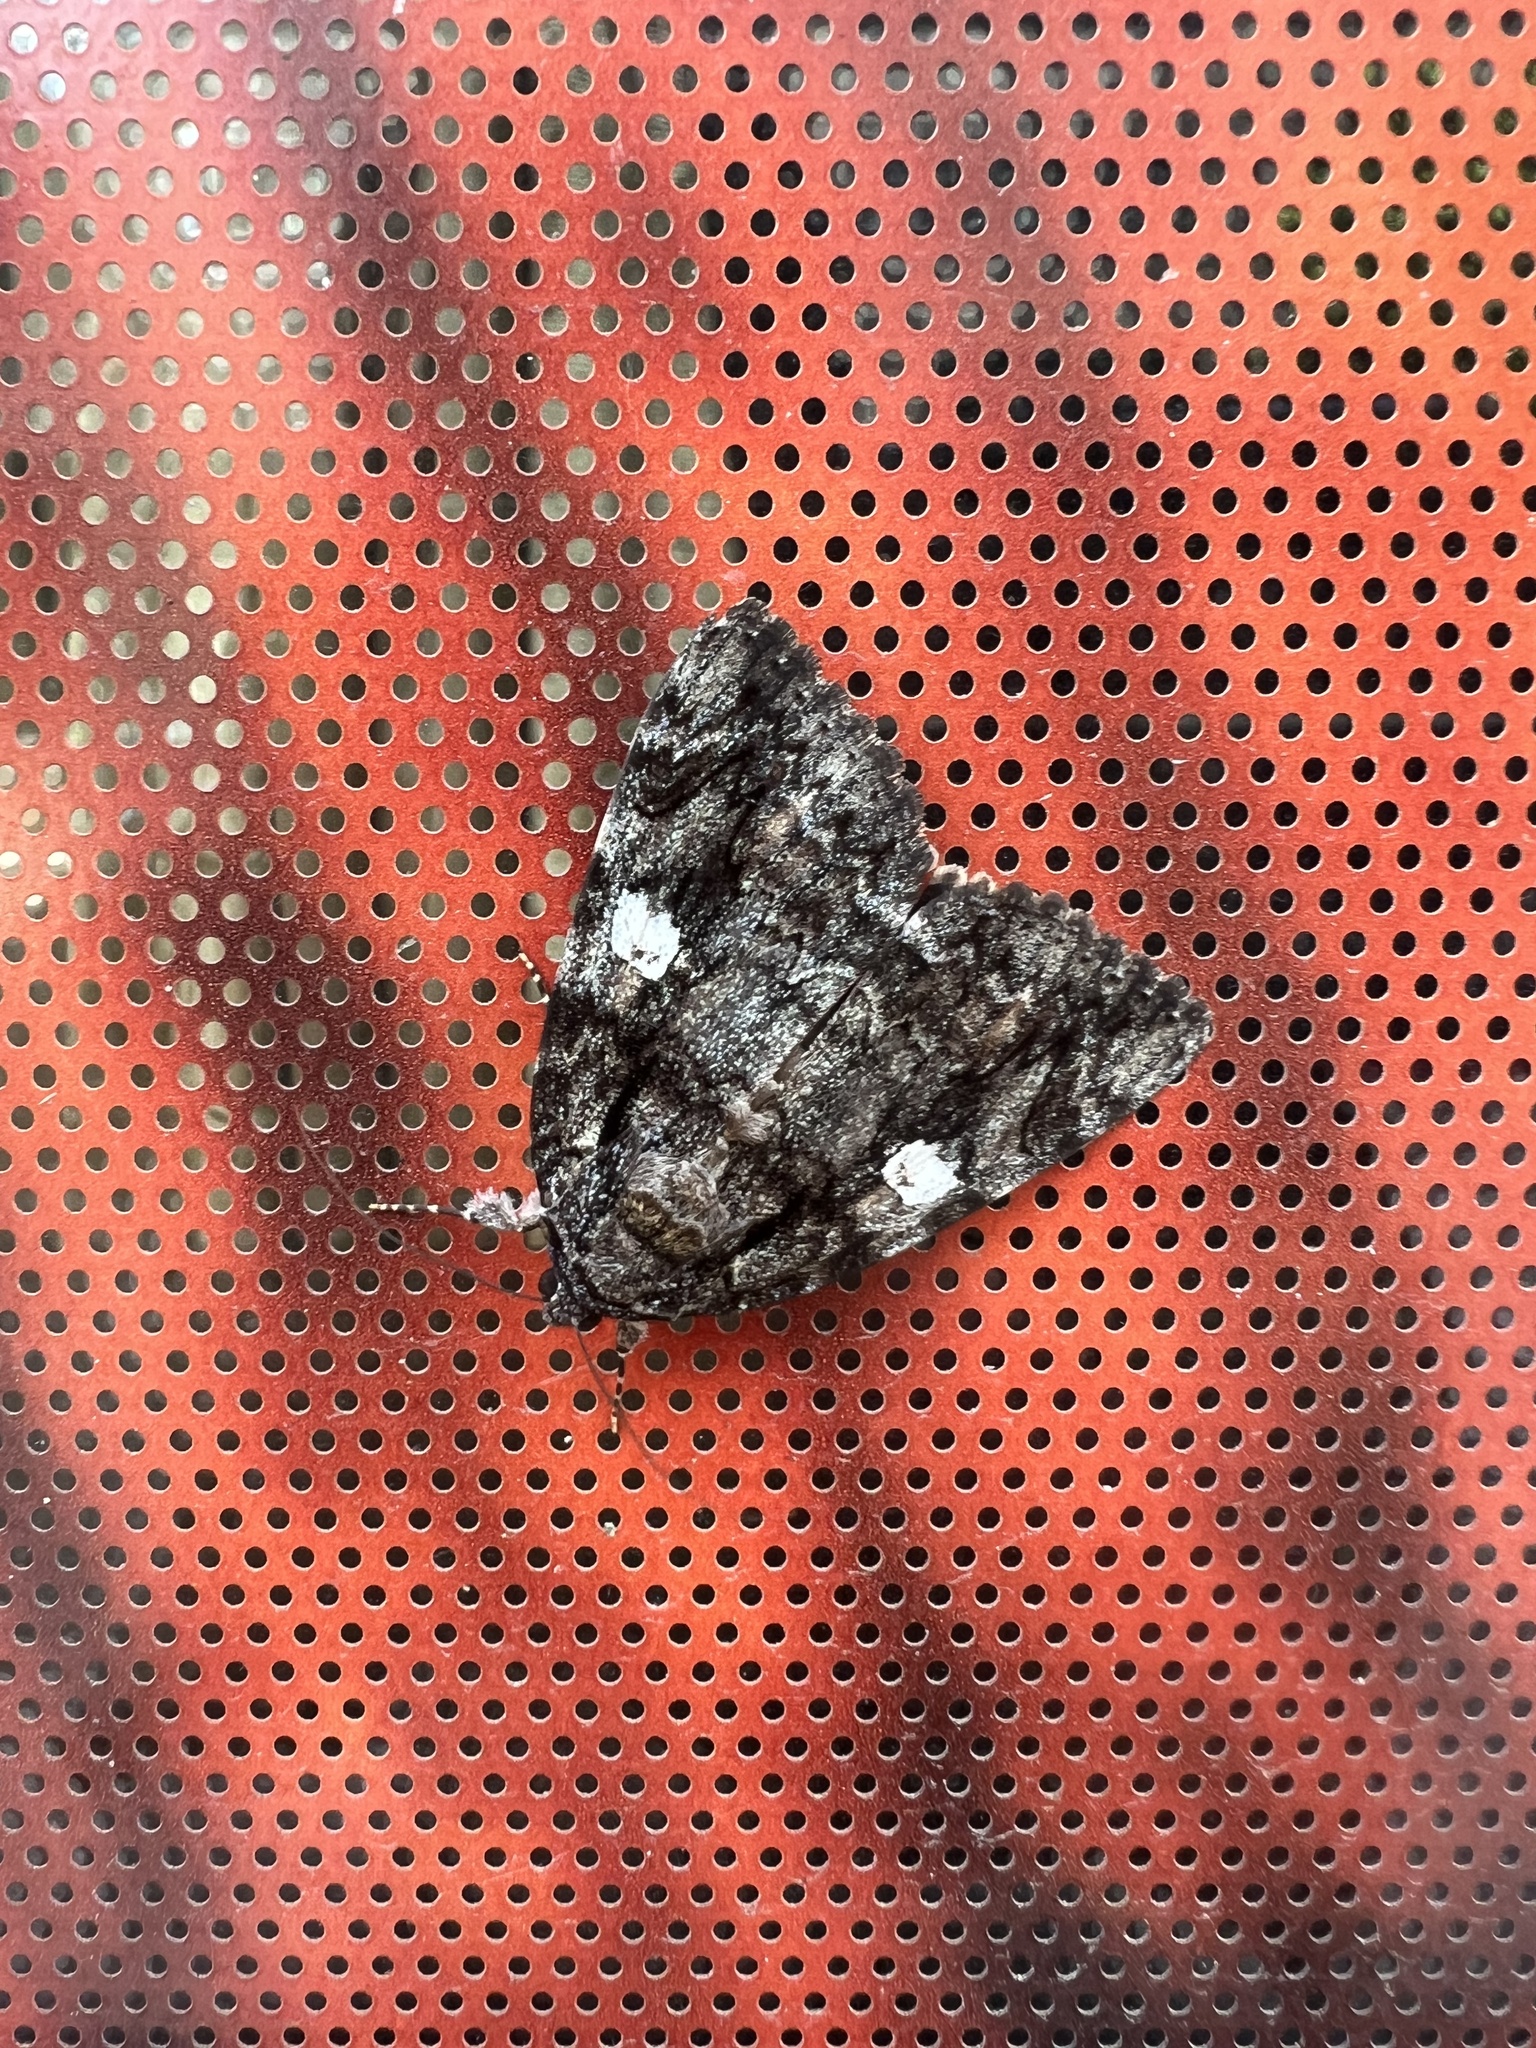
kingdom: Animalia
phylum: Arthropoda
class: Insecta
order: Lepidoptera
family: Erebidae
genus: Catocala
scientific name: Catocala ilia
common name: Ilia underwing
